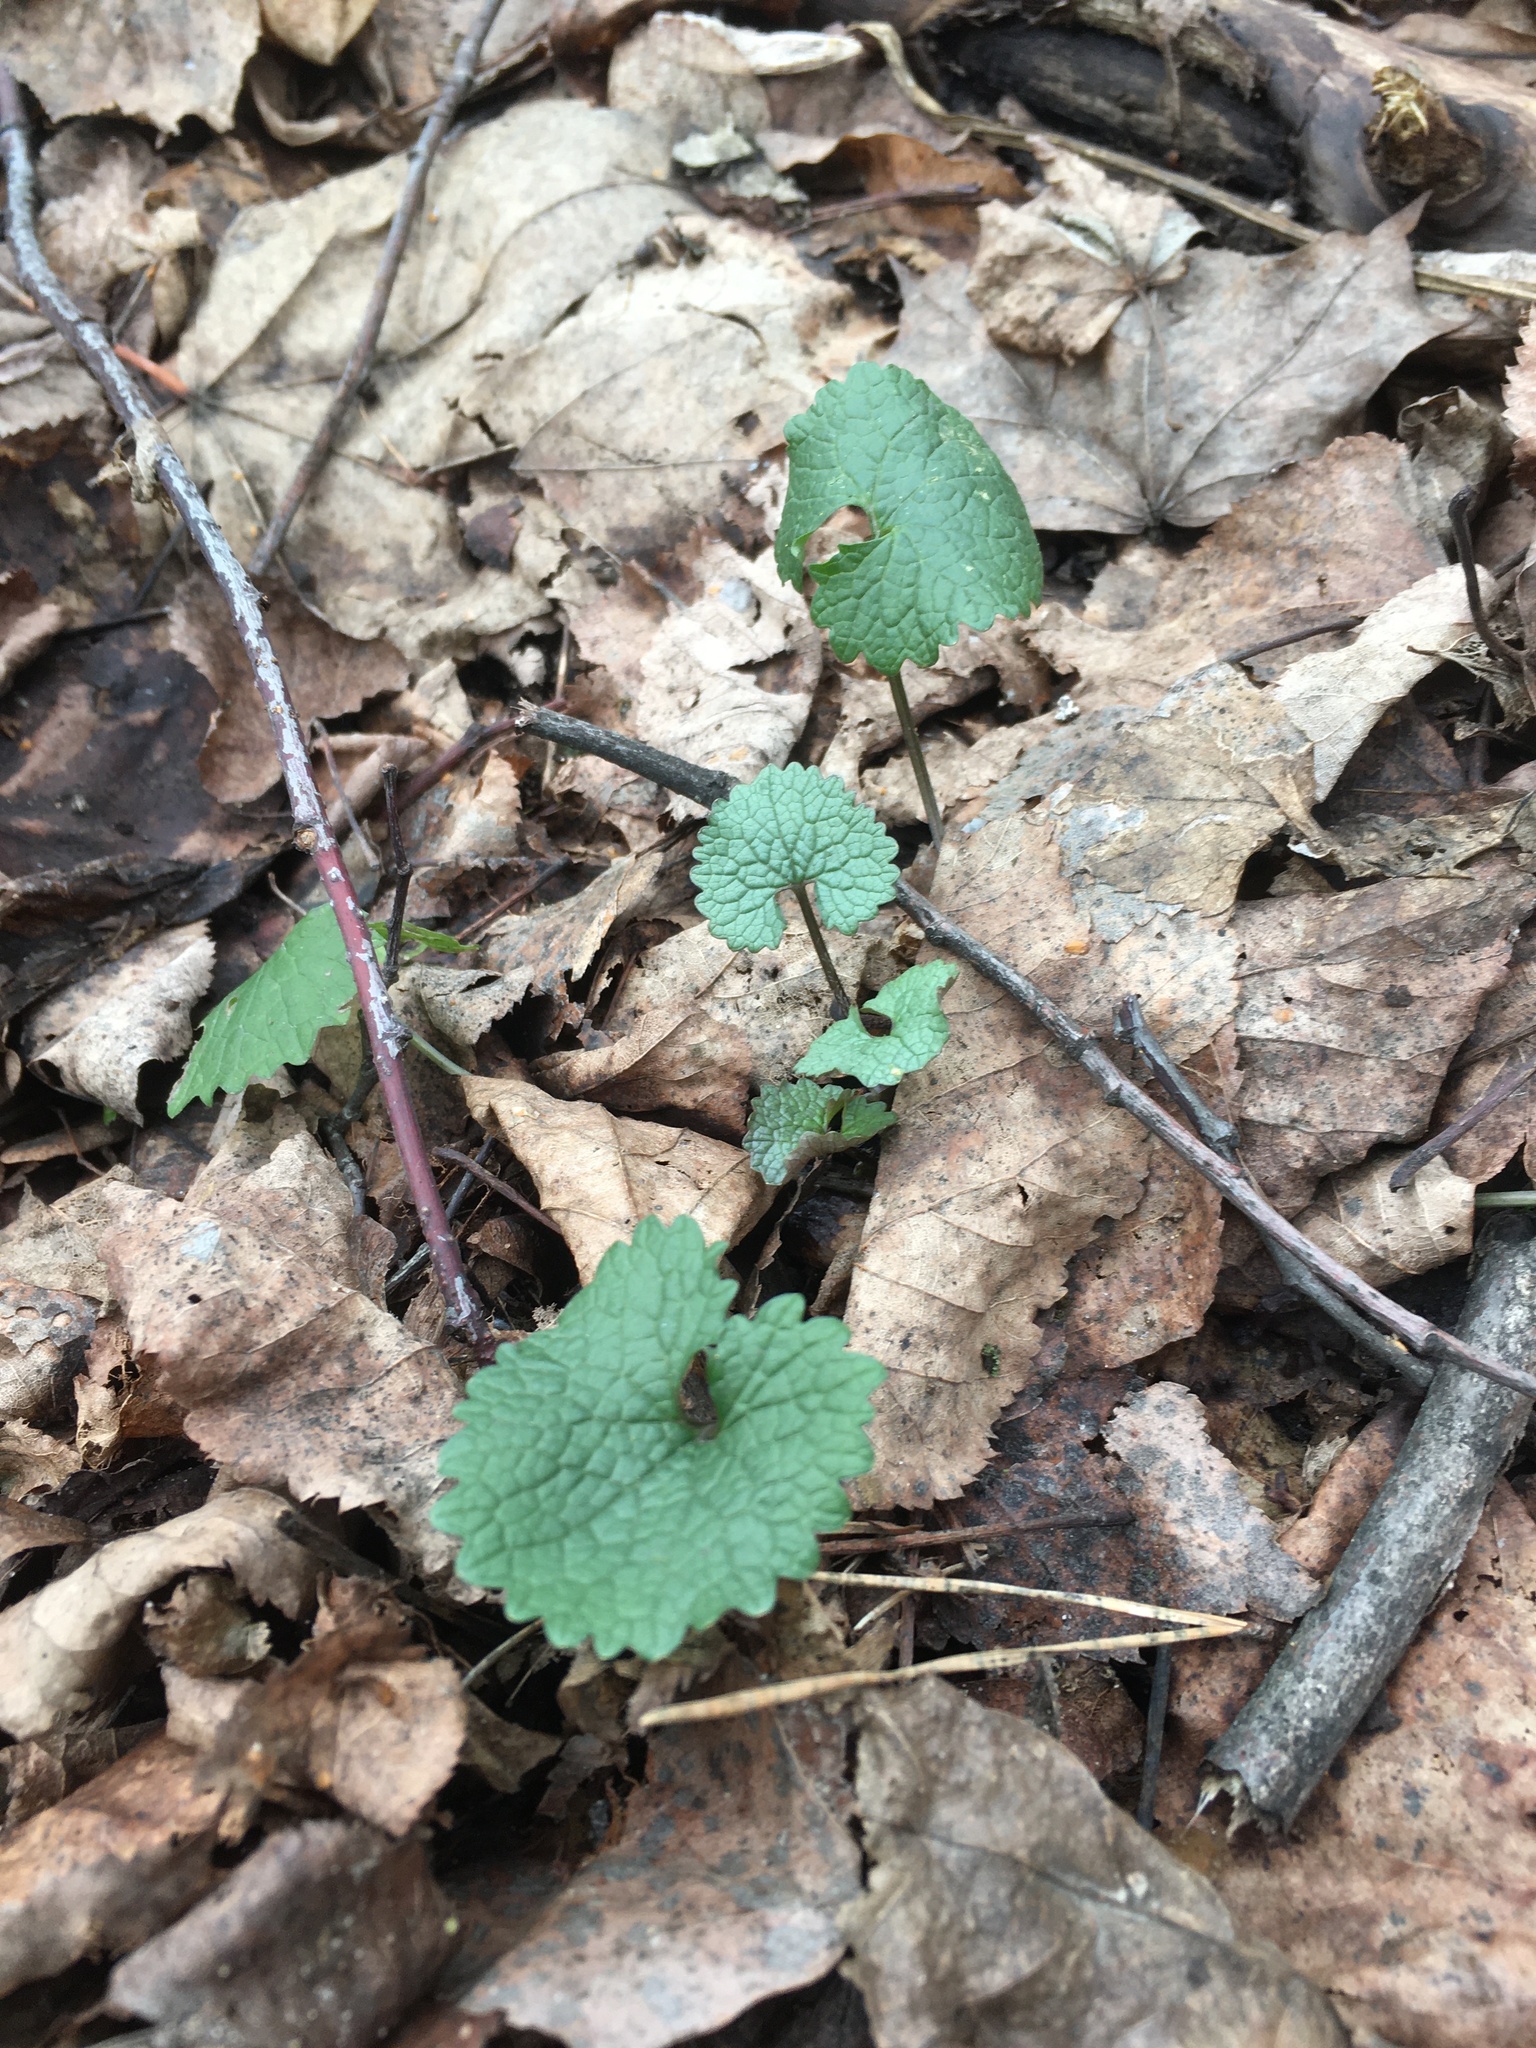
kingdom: Plantae
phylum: Tracheophyta
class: Magnoliopsida
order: Brassicales
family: Brassicaceae
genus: Alliaria
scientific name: Alliaria petiolata
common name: Garlic mustard
